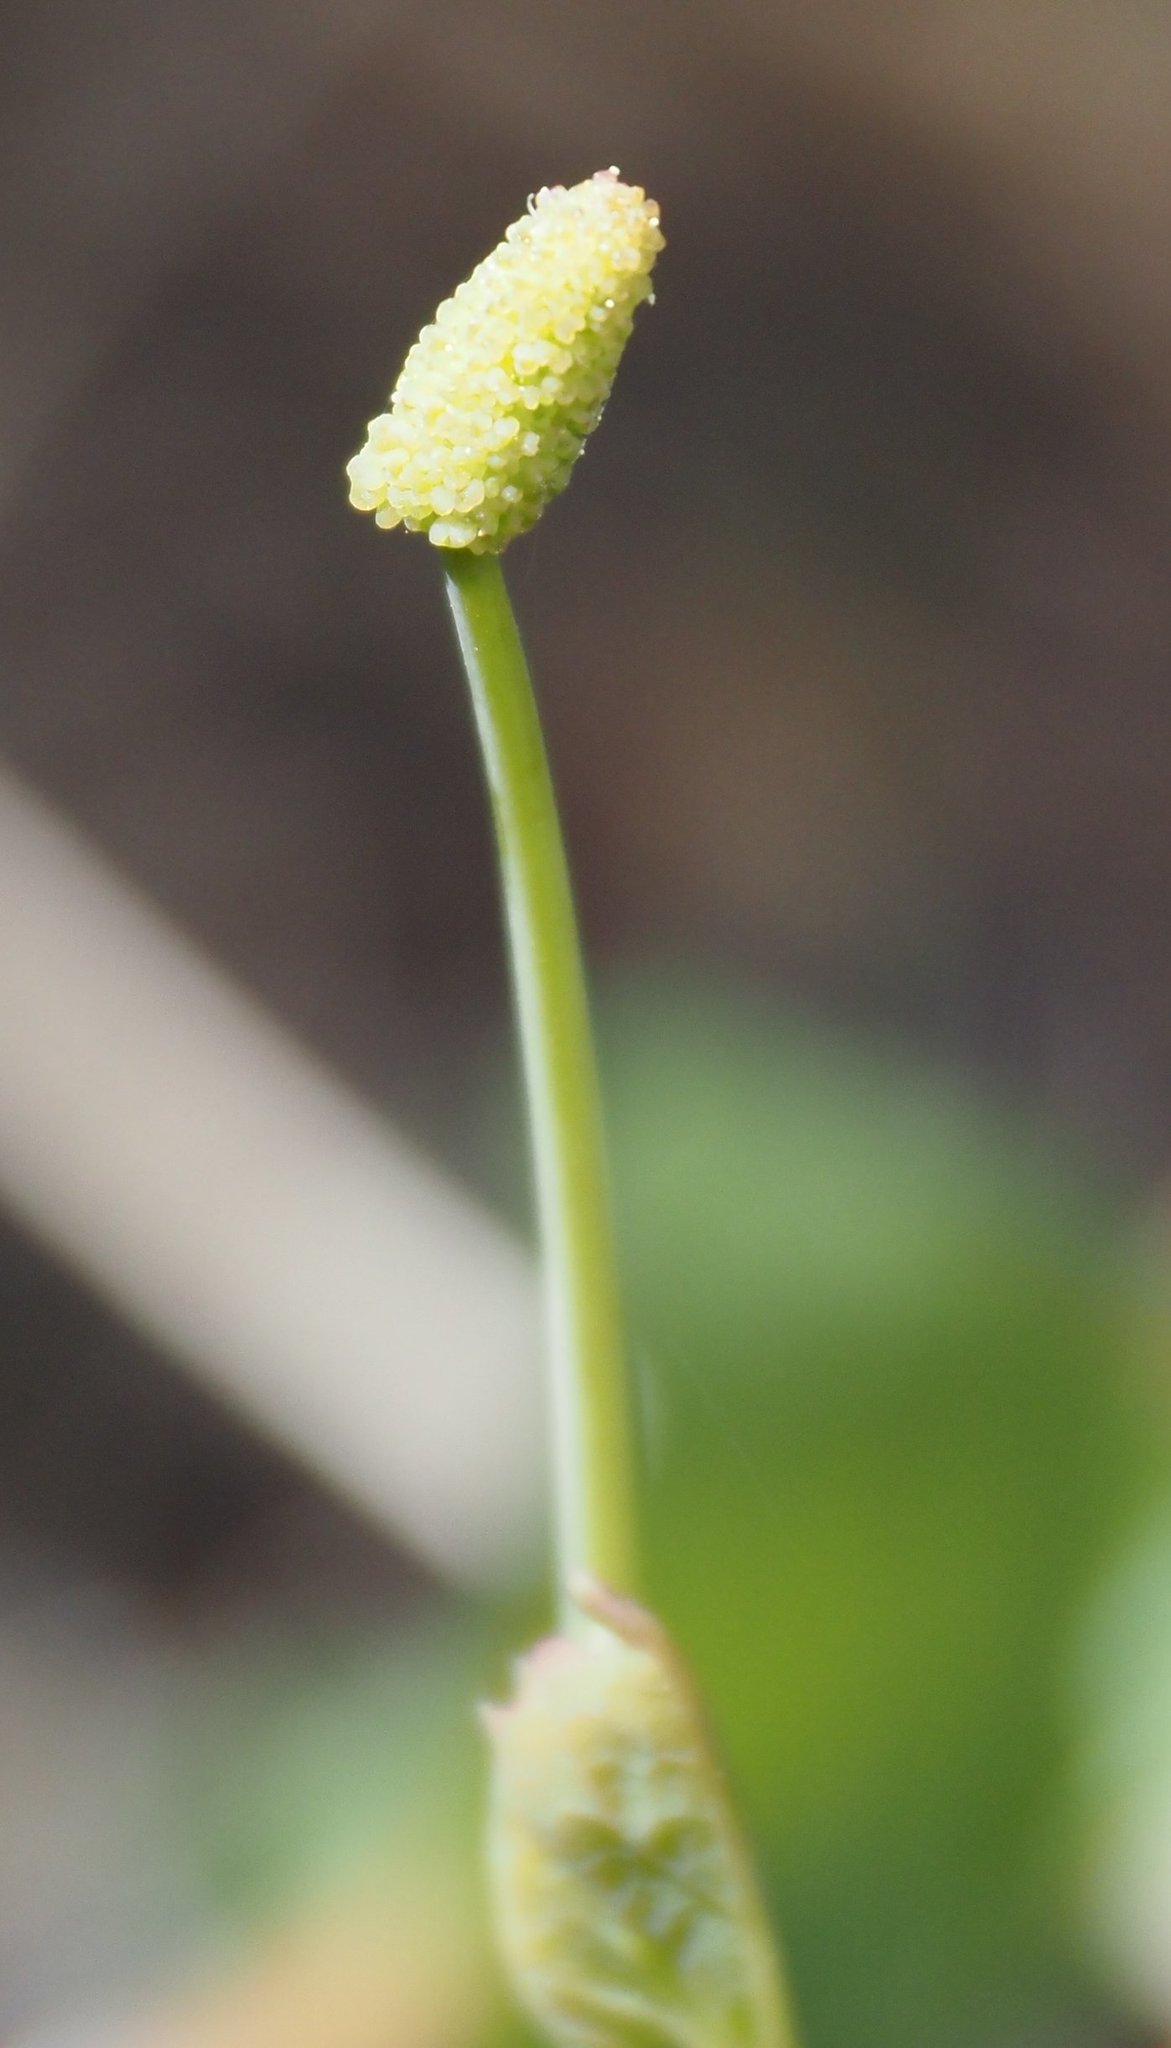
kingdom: Plantae
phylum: Tracheophyta
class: Magnoliopsida
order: Ranunculales
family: Berberidaceae
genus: Achlys
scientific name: Achlys triphylla
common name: Vanilla-leaf
